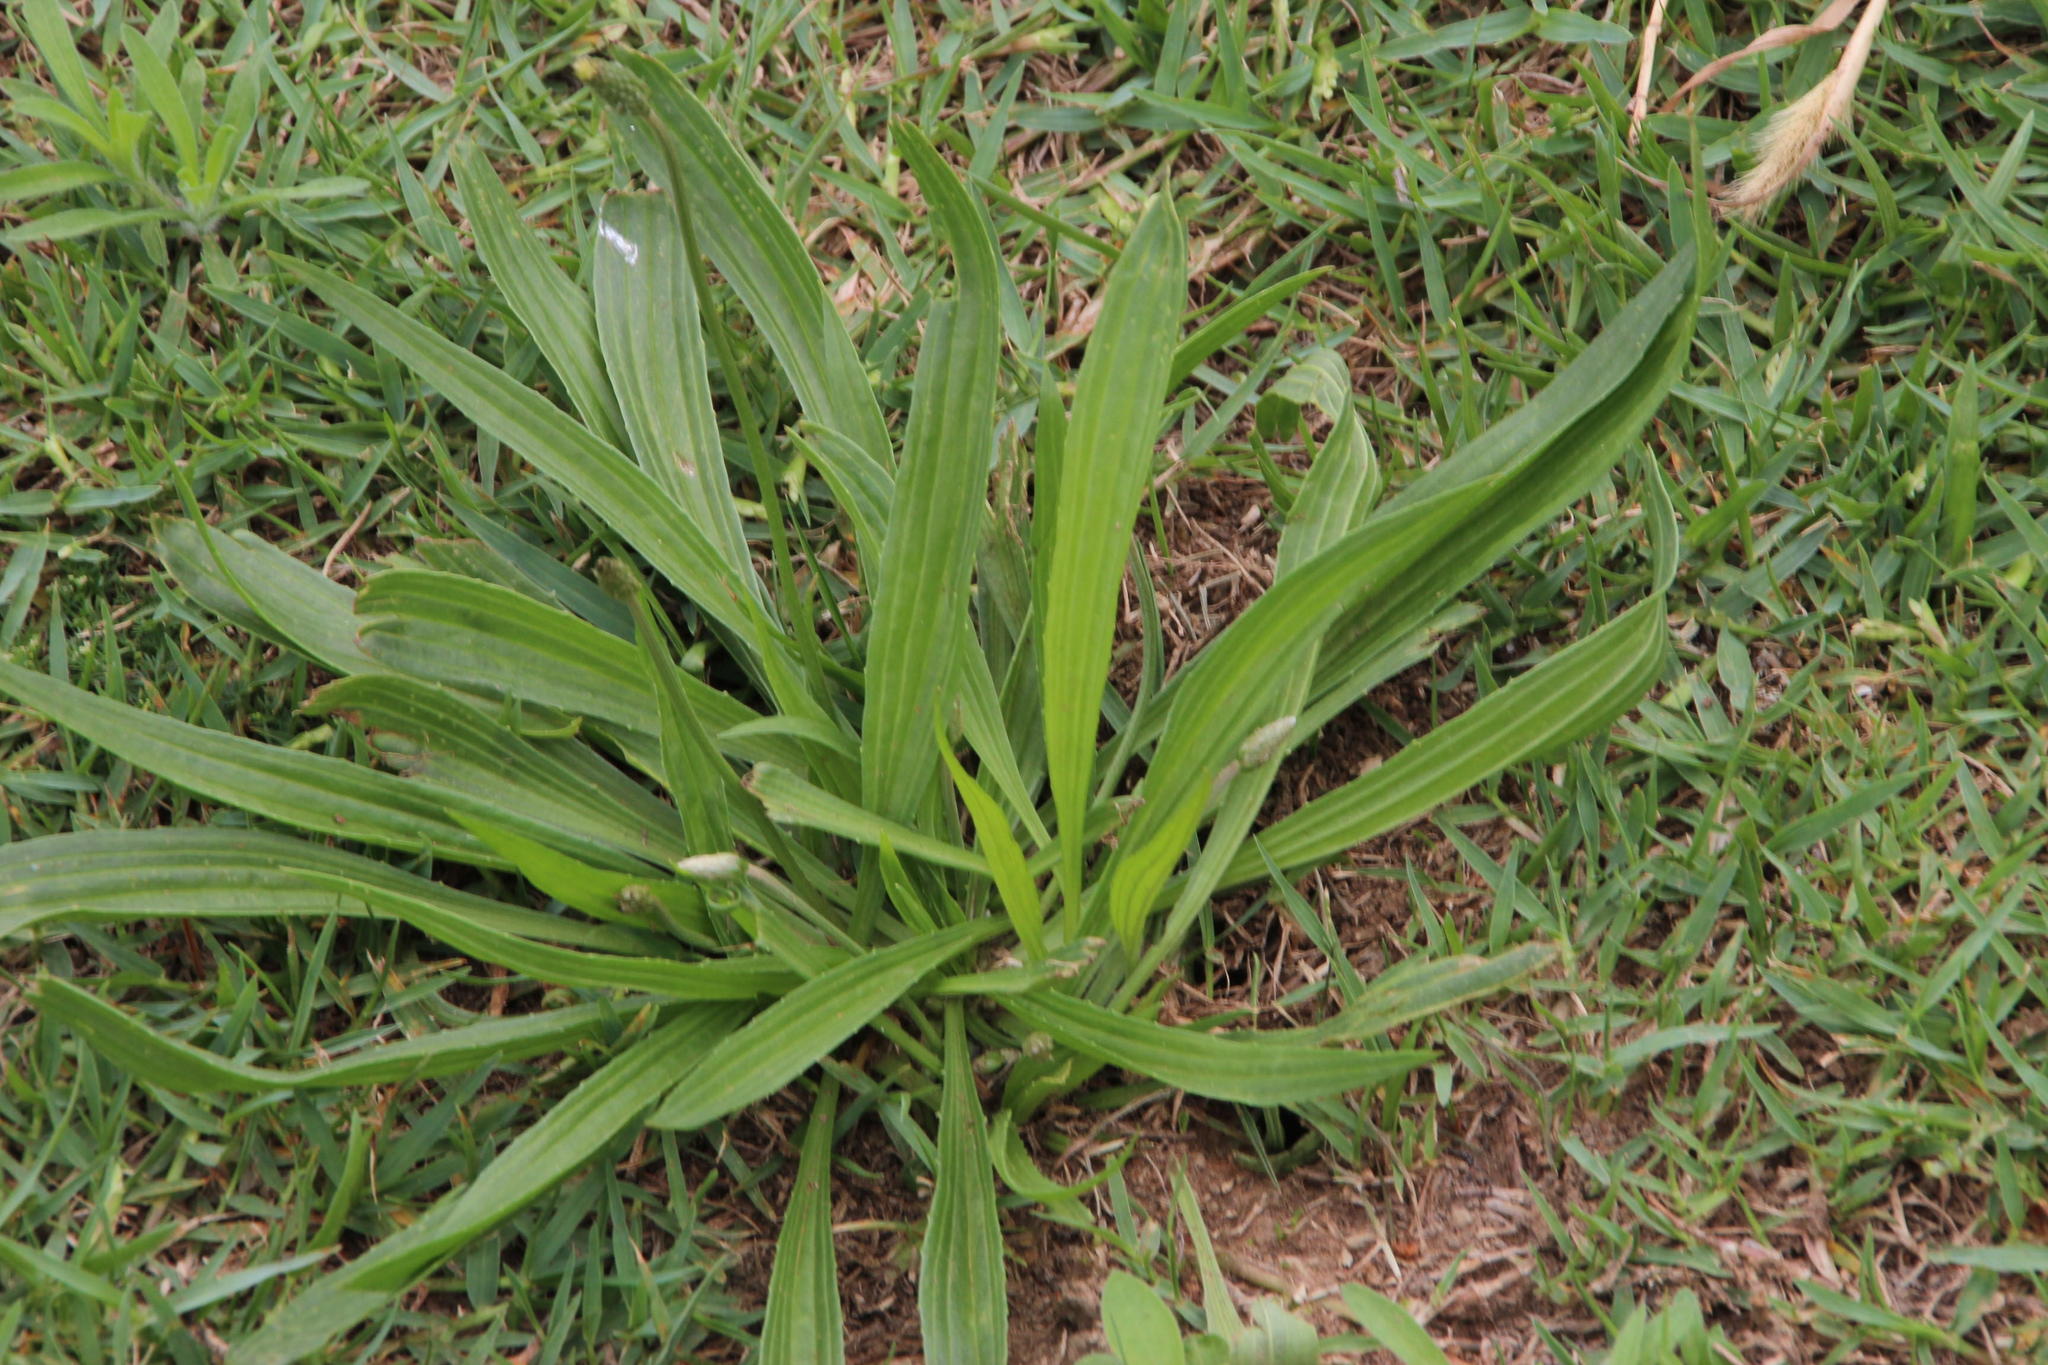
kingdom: Plantae
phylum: Tracheophyta
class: Magnoliopsida
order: Lamiales
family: Plantaginaceae
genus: Plantago
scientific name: Plantago lanceolata
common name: Ribwort plantain
